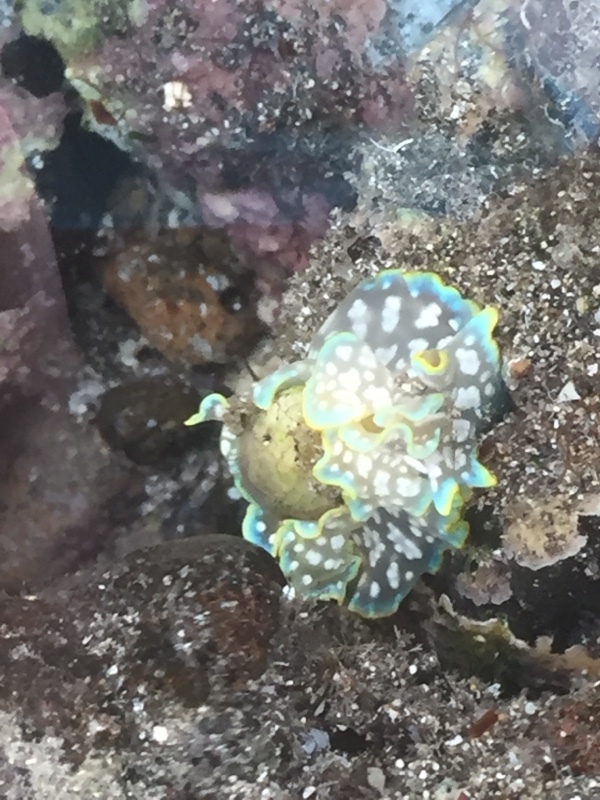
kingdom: Animalia
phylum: Mollusca
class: Gastropoda
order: Cephalaspidea
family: Aplustridae
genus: Micromelo
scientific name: Micromelo undatus
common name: Miniature melo
